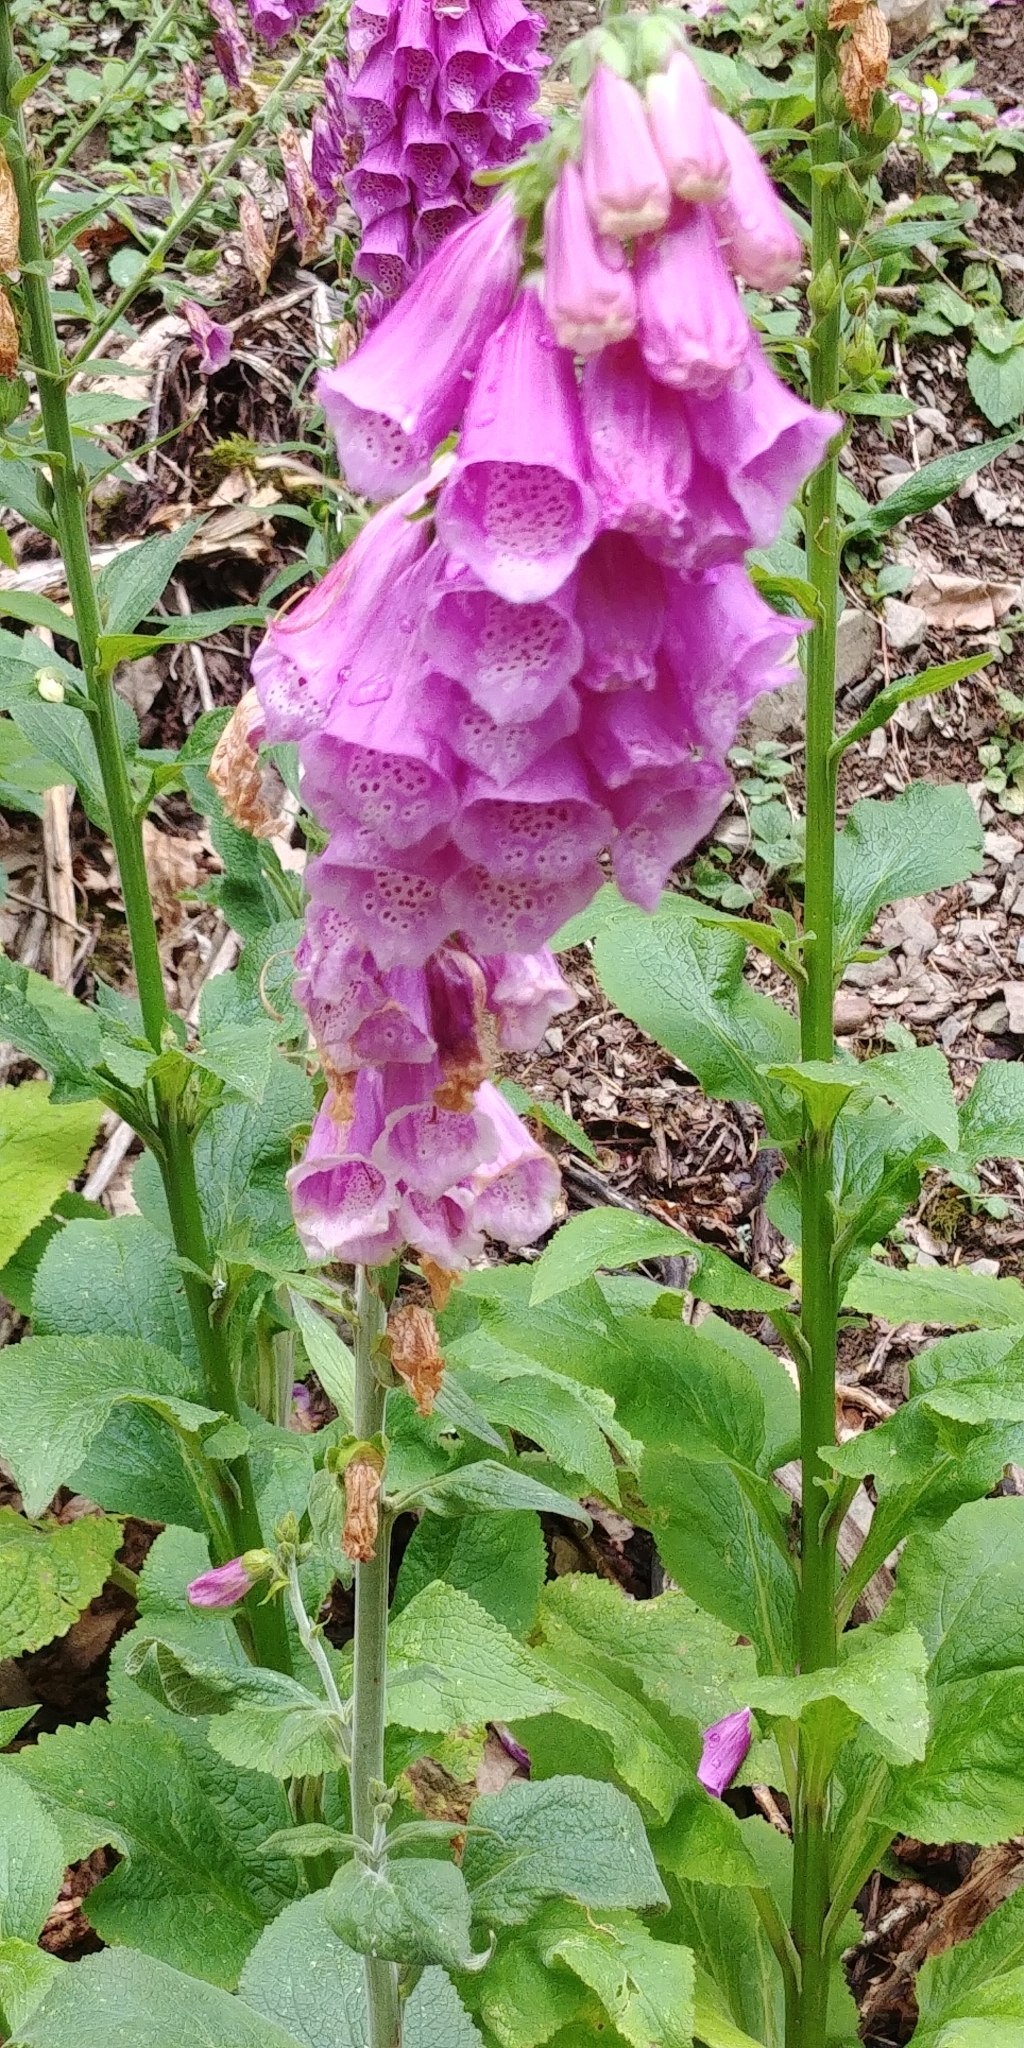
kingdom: Plantae
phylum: Tracheophyta
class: Magnoliopsida
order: Lamiales
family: Plantaginaceae
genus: Digitalis
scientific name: Digitalis purpurea
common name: Foxglove
